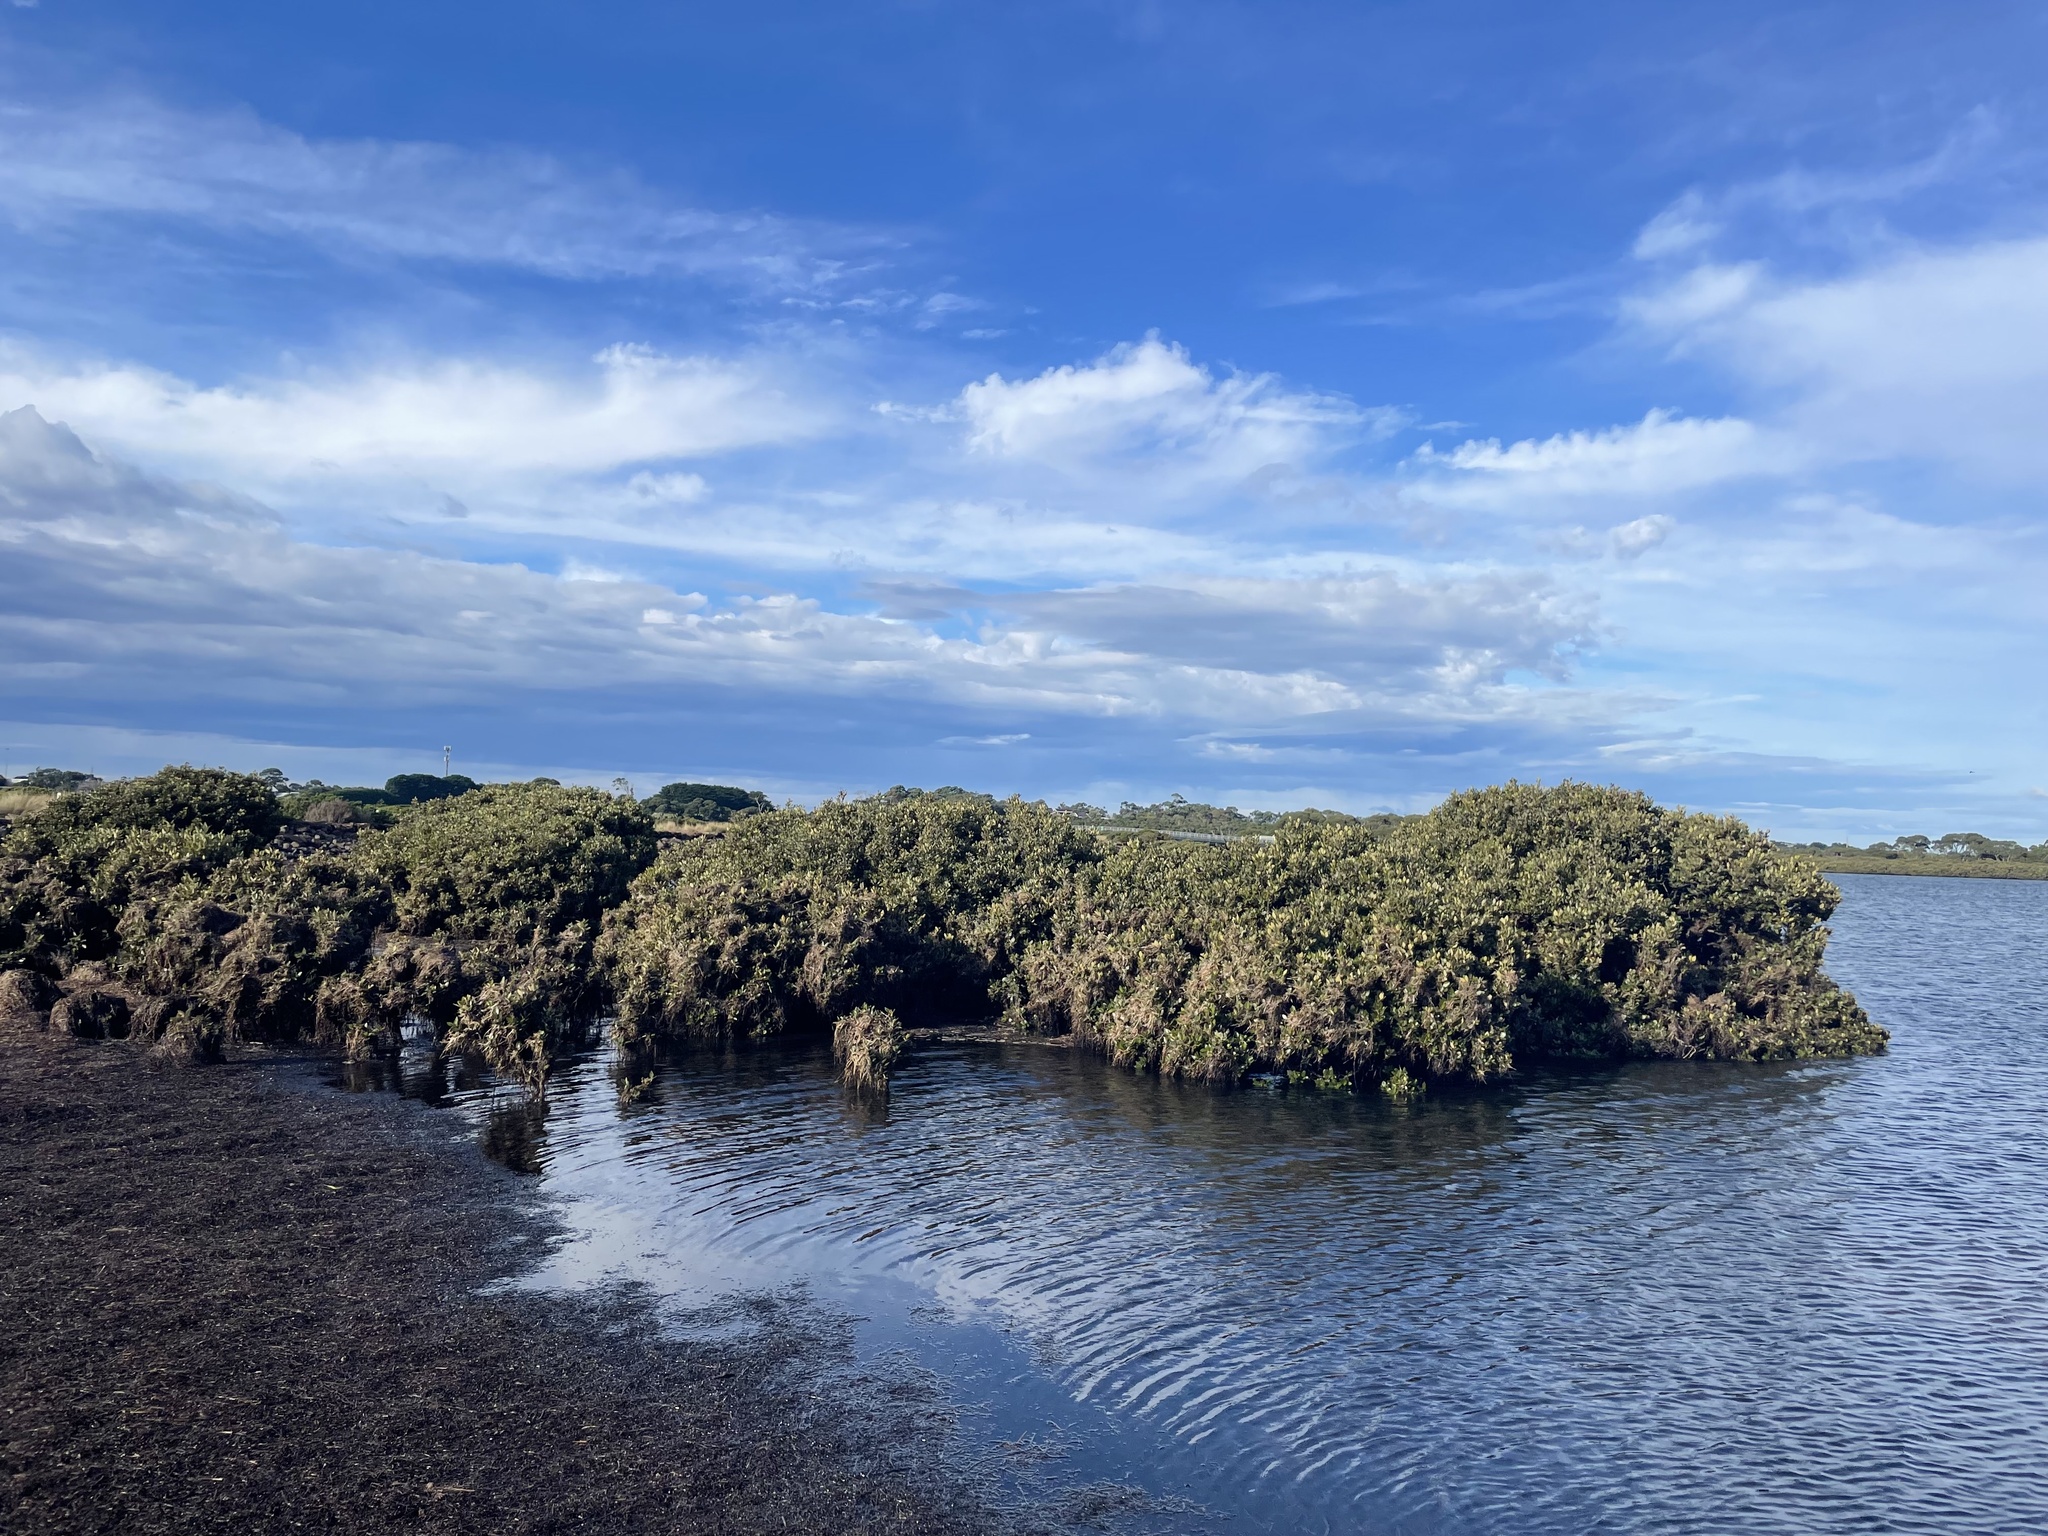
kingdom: Plantae
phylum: Tracheophyta
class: Magnoliopsida
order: Lamiales
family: Acanthaceae
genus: Avicennia
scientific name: Avicennia marina
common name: Gray mangrove
